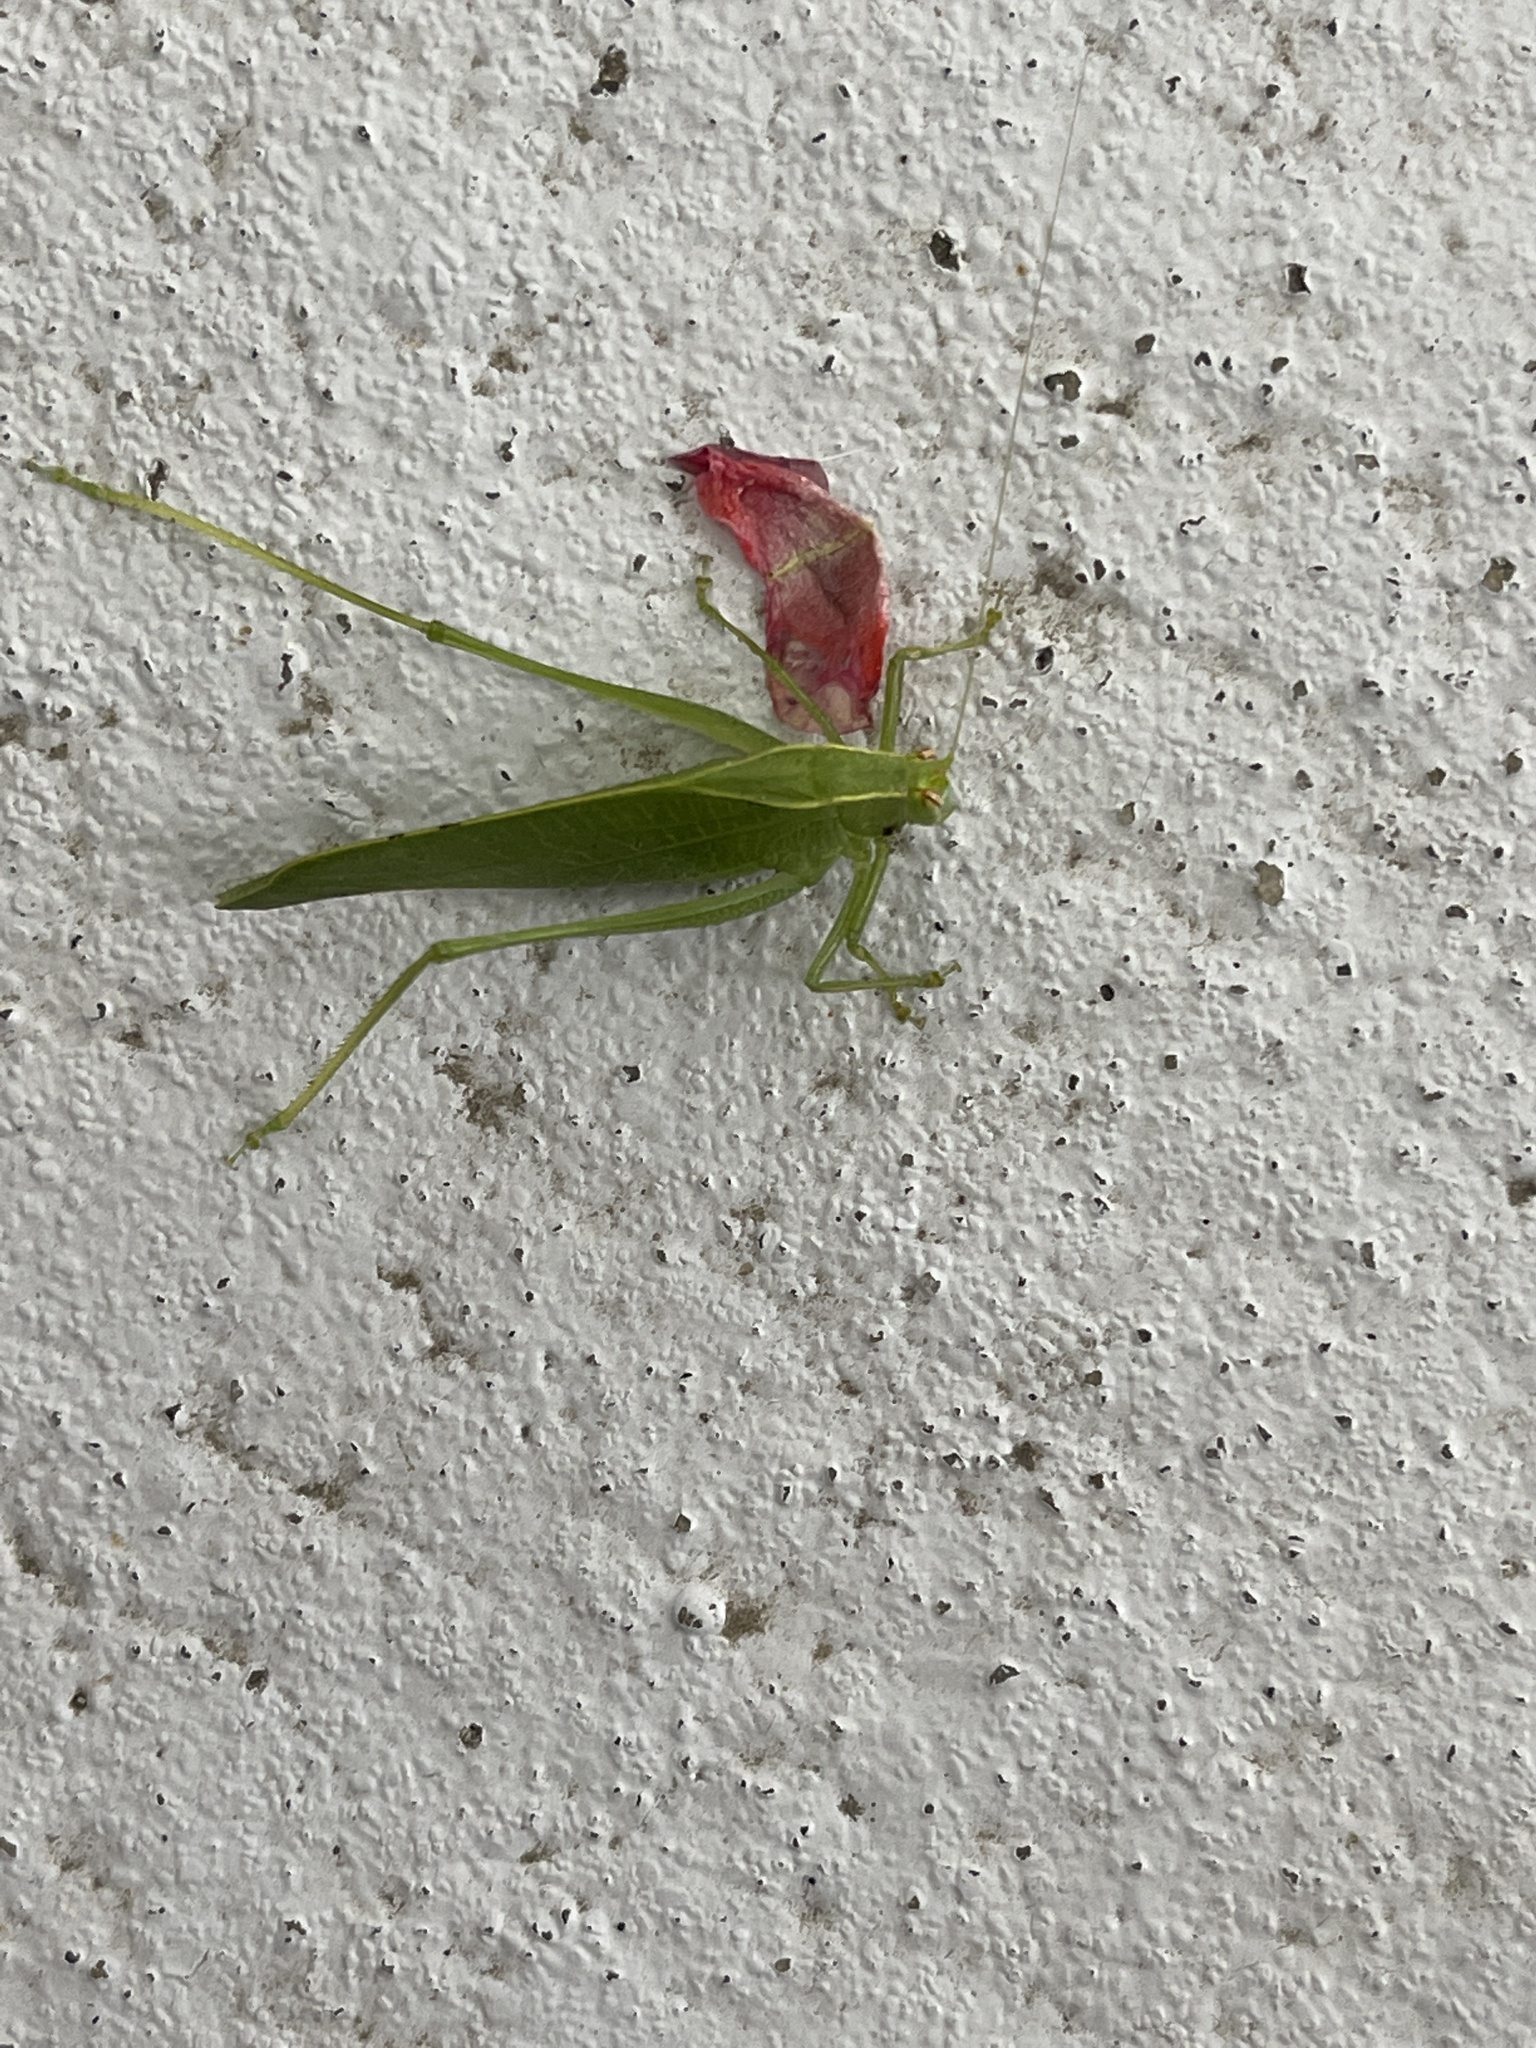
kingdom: Animalia
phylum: Arthropoda
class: Insecta
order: Orthoptera
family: Tettigoniidae
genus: Montezumina
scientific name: Montezumina modesta
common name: Modest katydid
